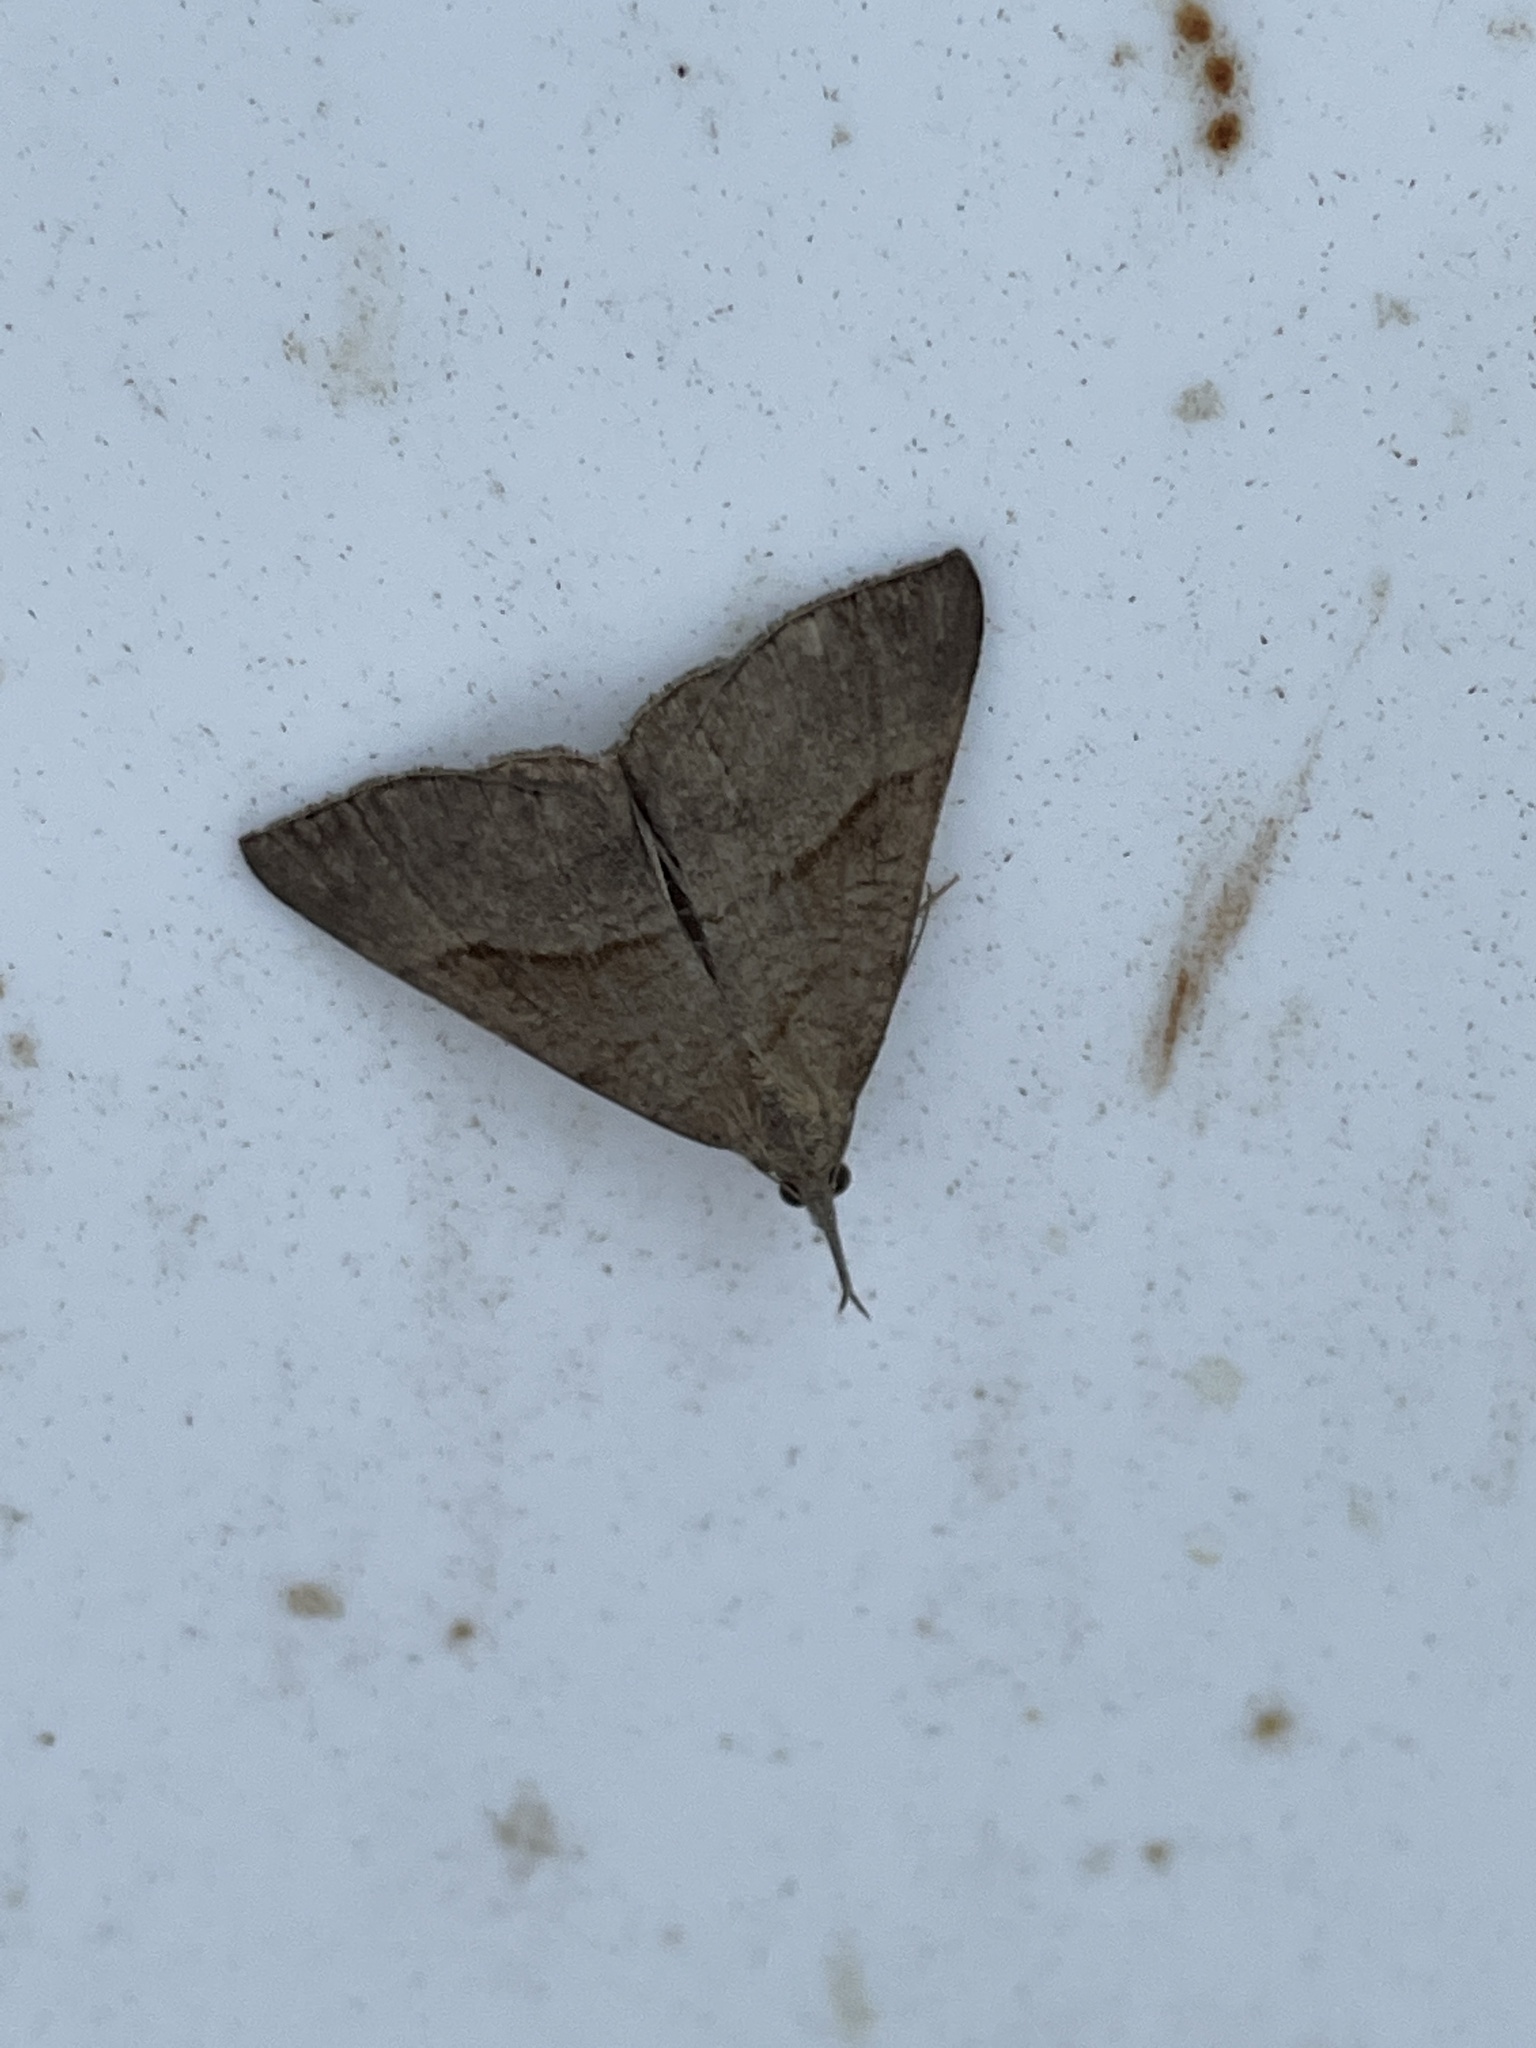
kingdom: Animalia
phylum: Arthropoda
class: Insecta
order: Lepidoptera
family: Erebidae
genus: Hypena
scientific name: Hypena proboscidalis
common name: Snout
